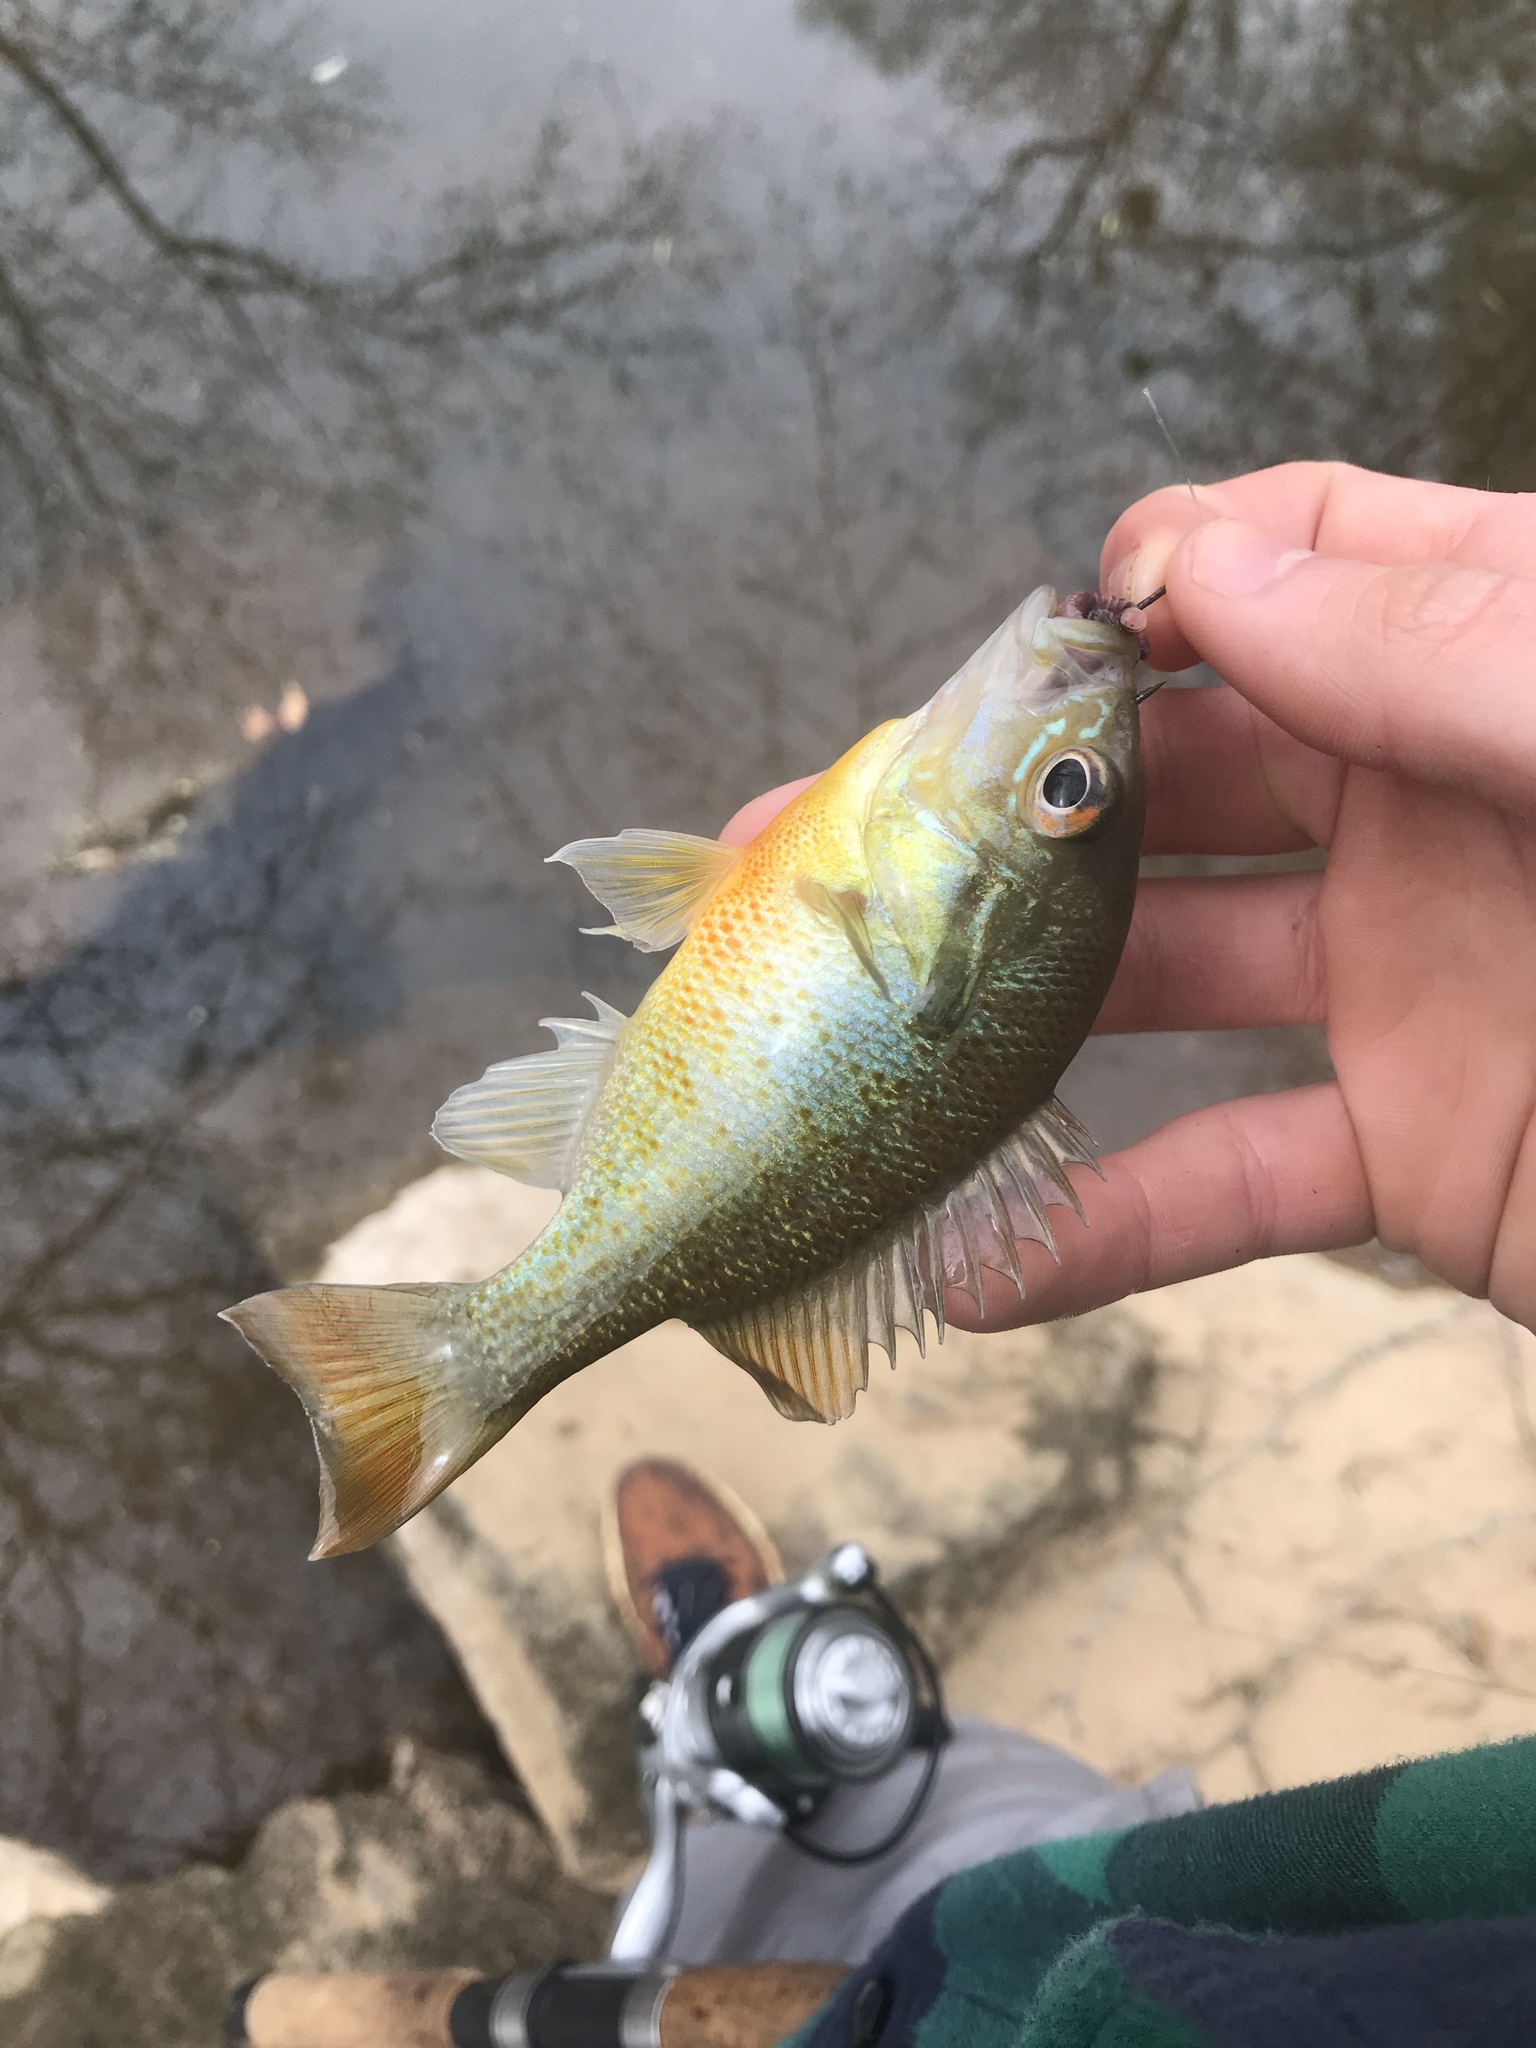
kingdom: Animalia
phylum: Chordata
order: Perciformes
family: Centrarchidae
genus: Lepomis
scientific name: Lepomis auritus
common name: Redbreast sunfish
